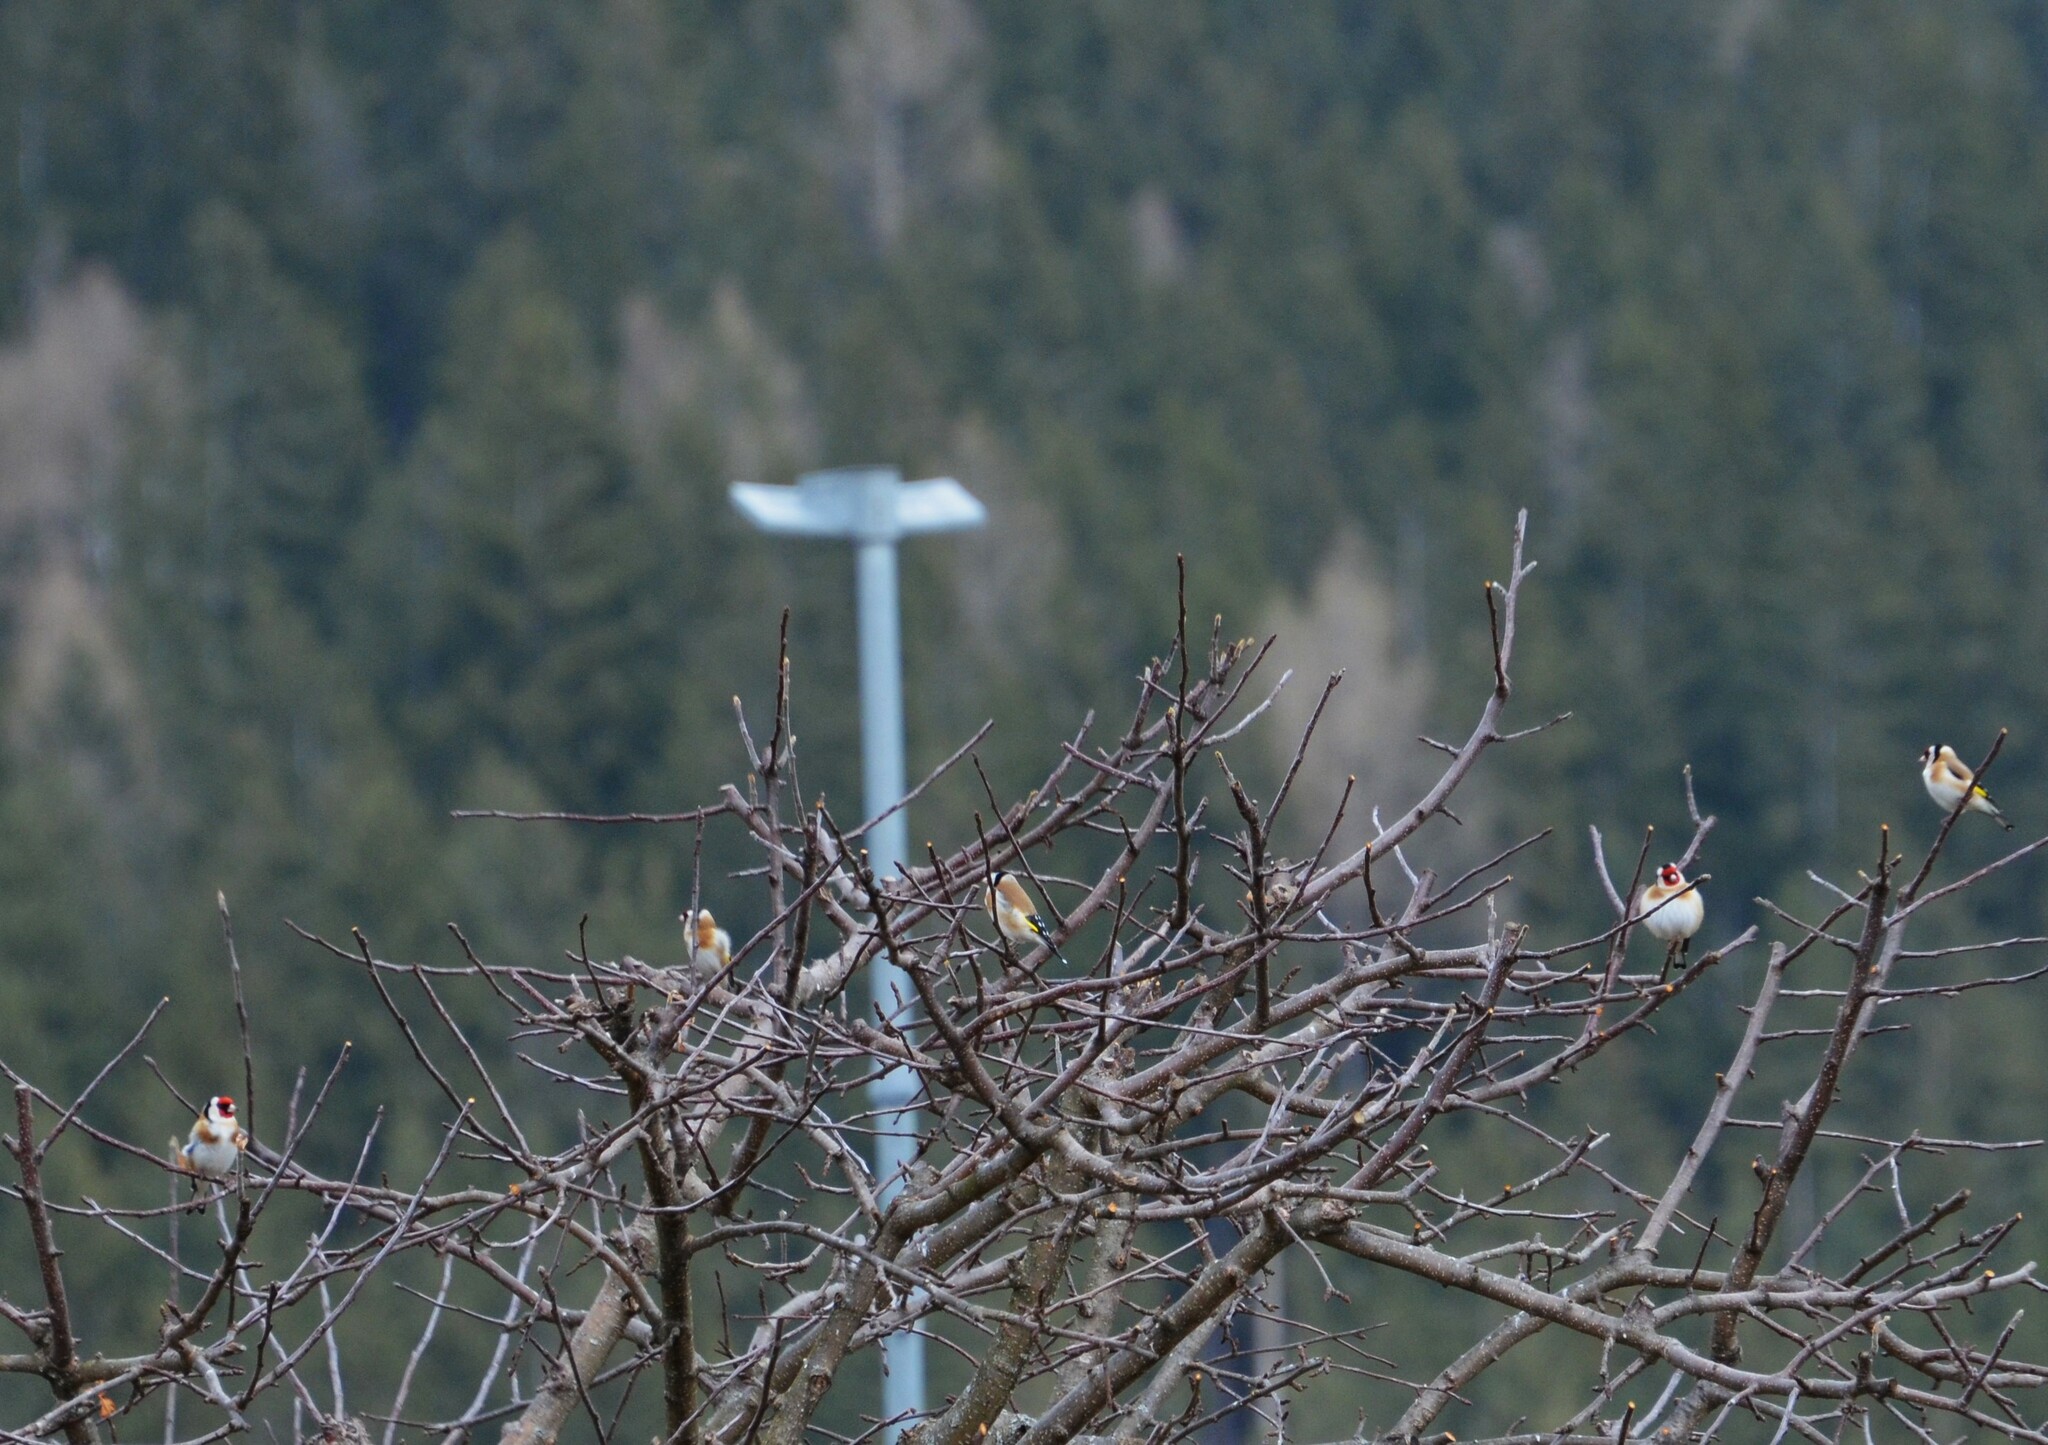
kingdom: Animalia
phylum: Chordata
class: Aves
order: Passeriformes
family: Fringillidae
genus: Carduelis
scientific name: Carduelis carduelis
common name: European goldfinch
